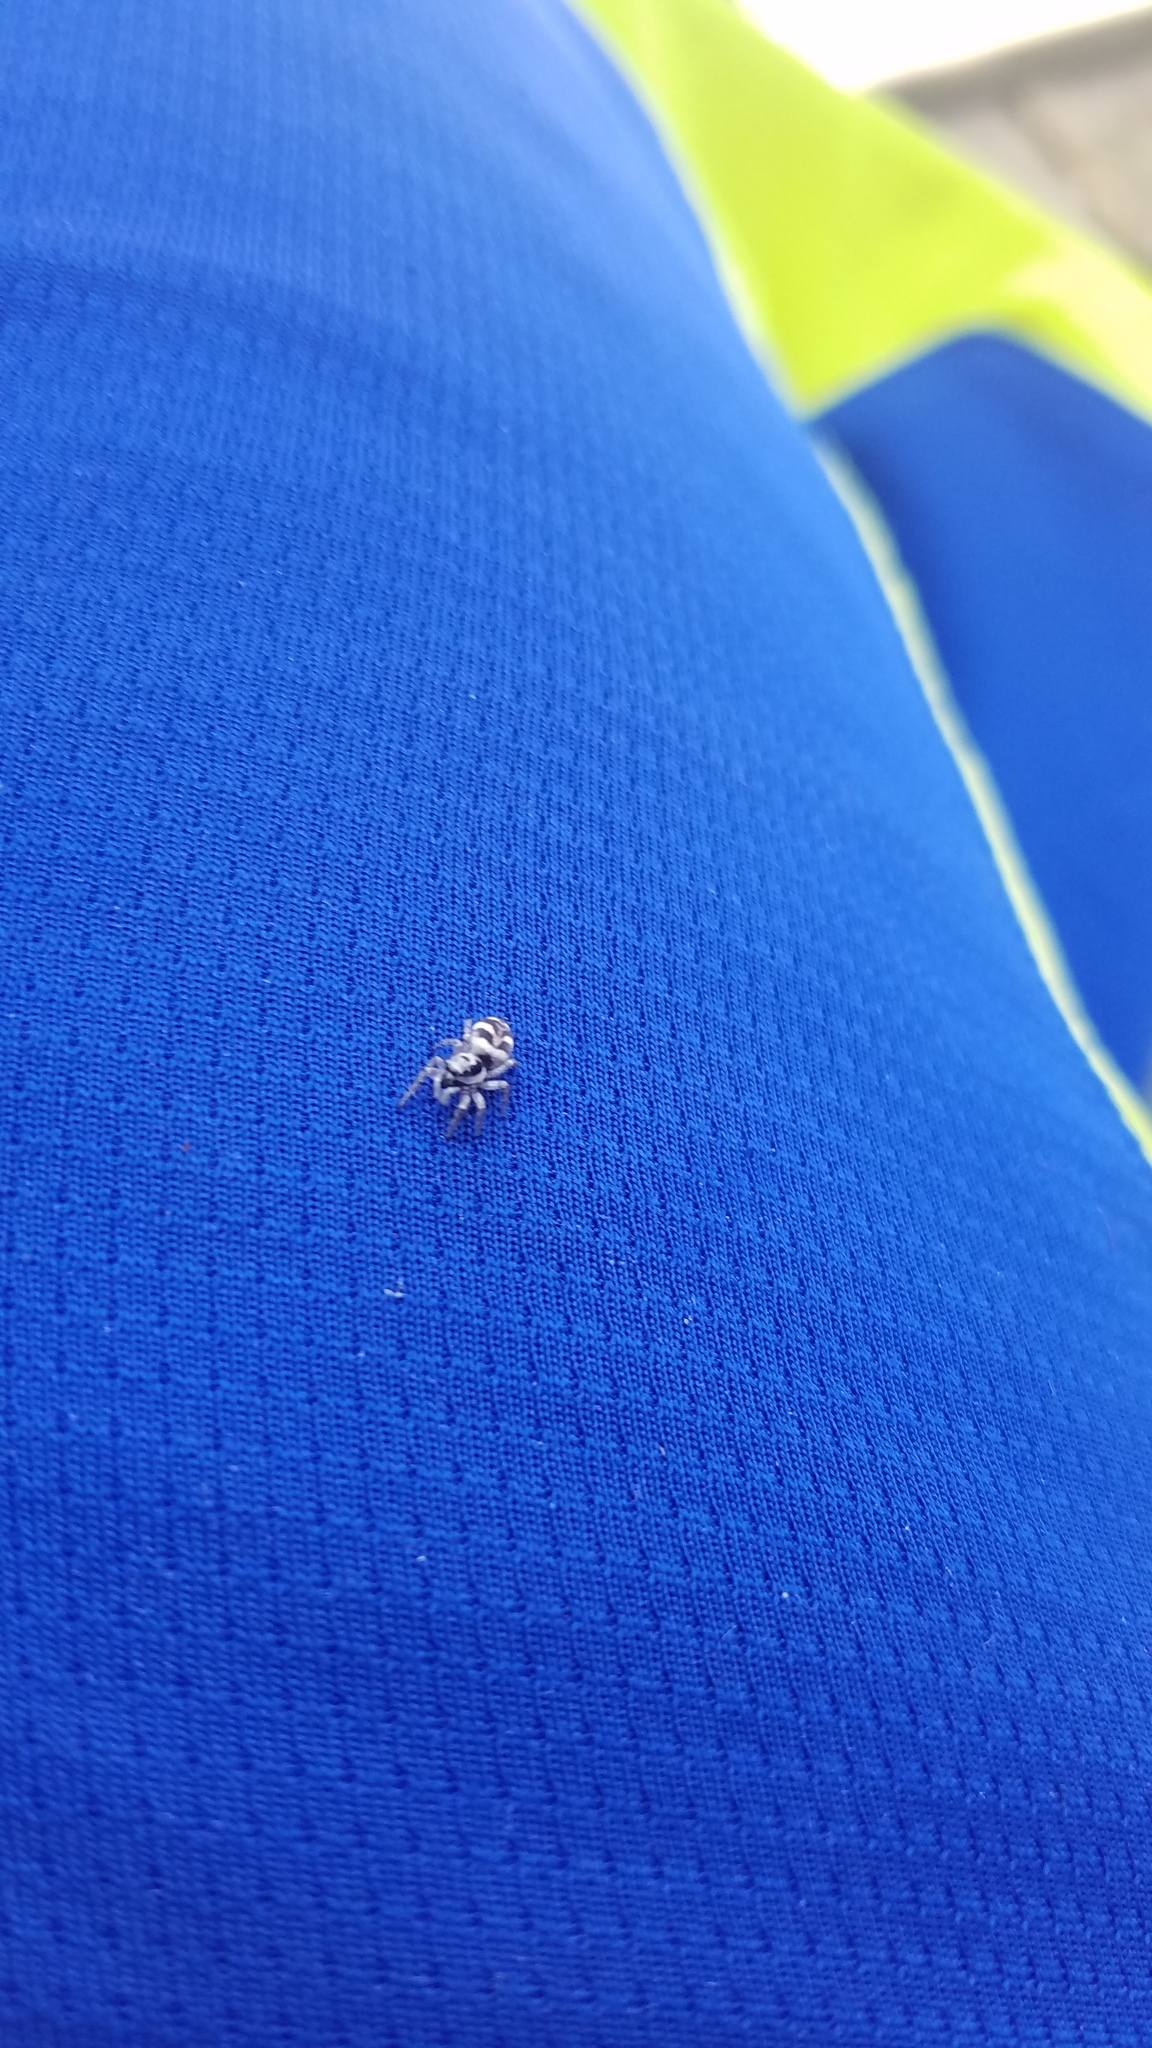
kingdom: Animalia
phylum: Arthropoda
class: Arachnida
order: Araneae
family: Salticidae
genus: Salticus
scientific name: Salticus scenicus
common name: Zebra jumper
